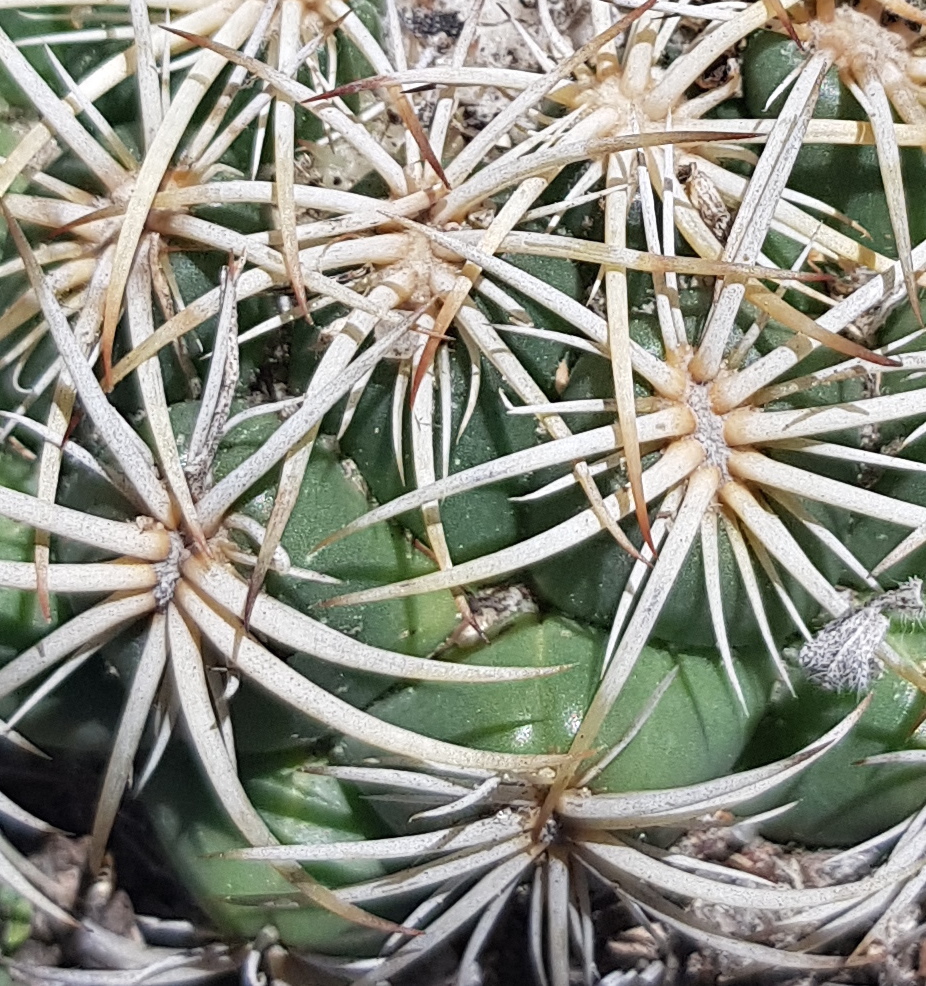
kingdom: Plantae
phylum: Tracheophyta
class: Magnoliopsida
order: Caryophyllales
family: Cactaceae
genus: Coryphantha
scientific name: Coryphantha retusa
